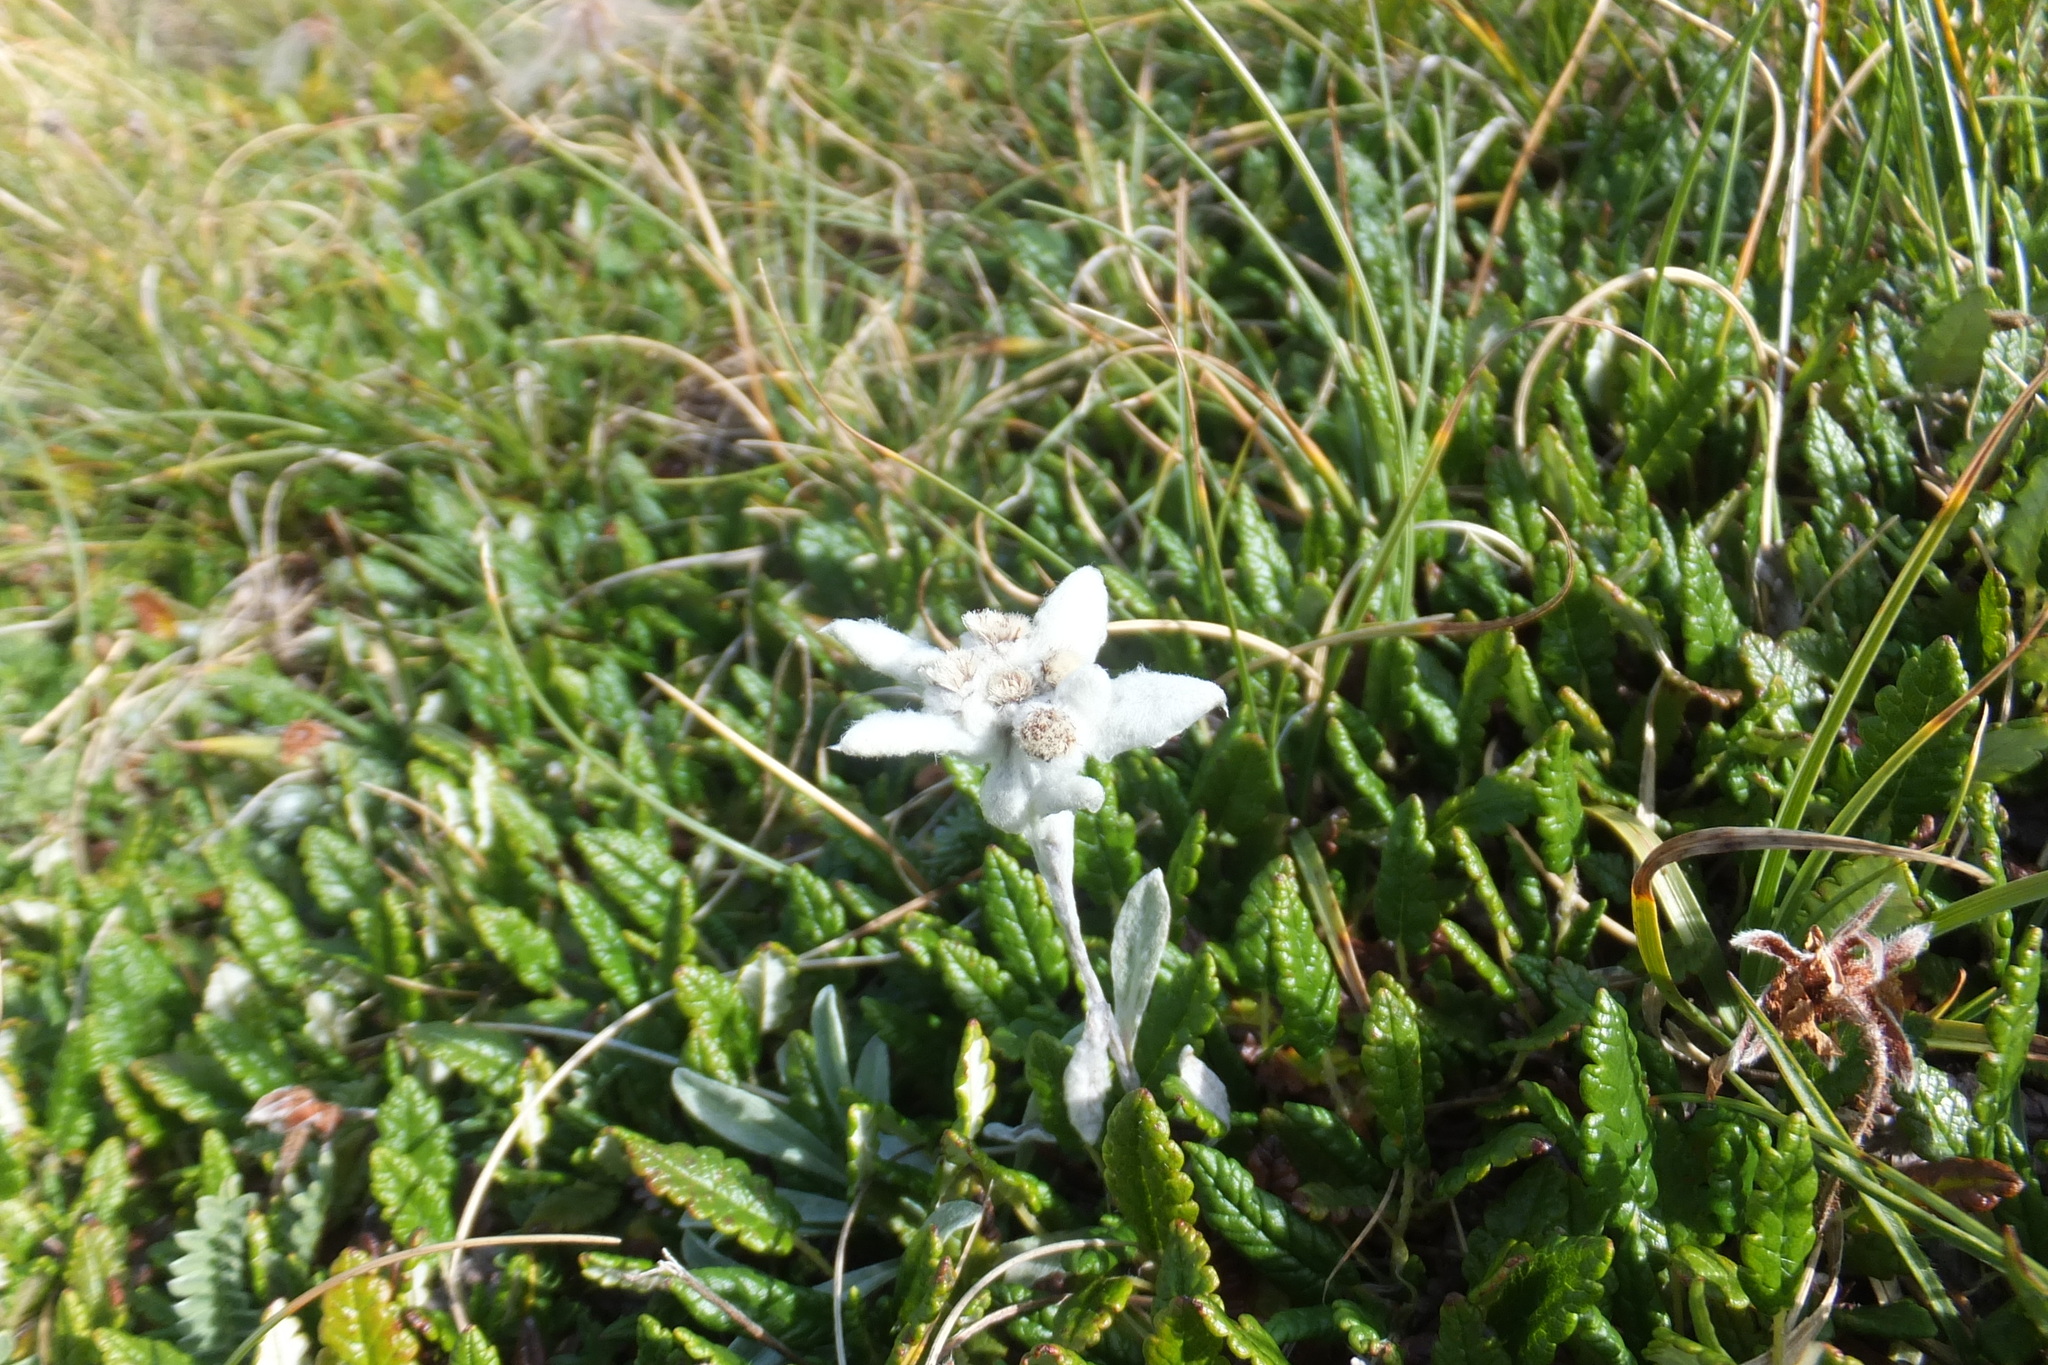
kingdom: Plantae
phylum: Tracheophyta
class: Magnoliopsida
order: Asterales
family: Asteraceae
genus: Leontopodium
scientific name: Leontopodium nivale
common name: Edelweiss
